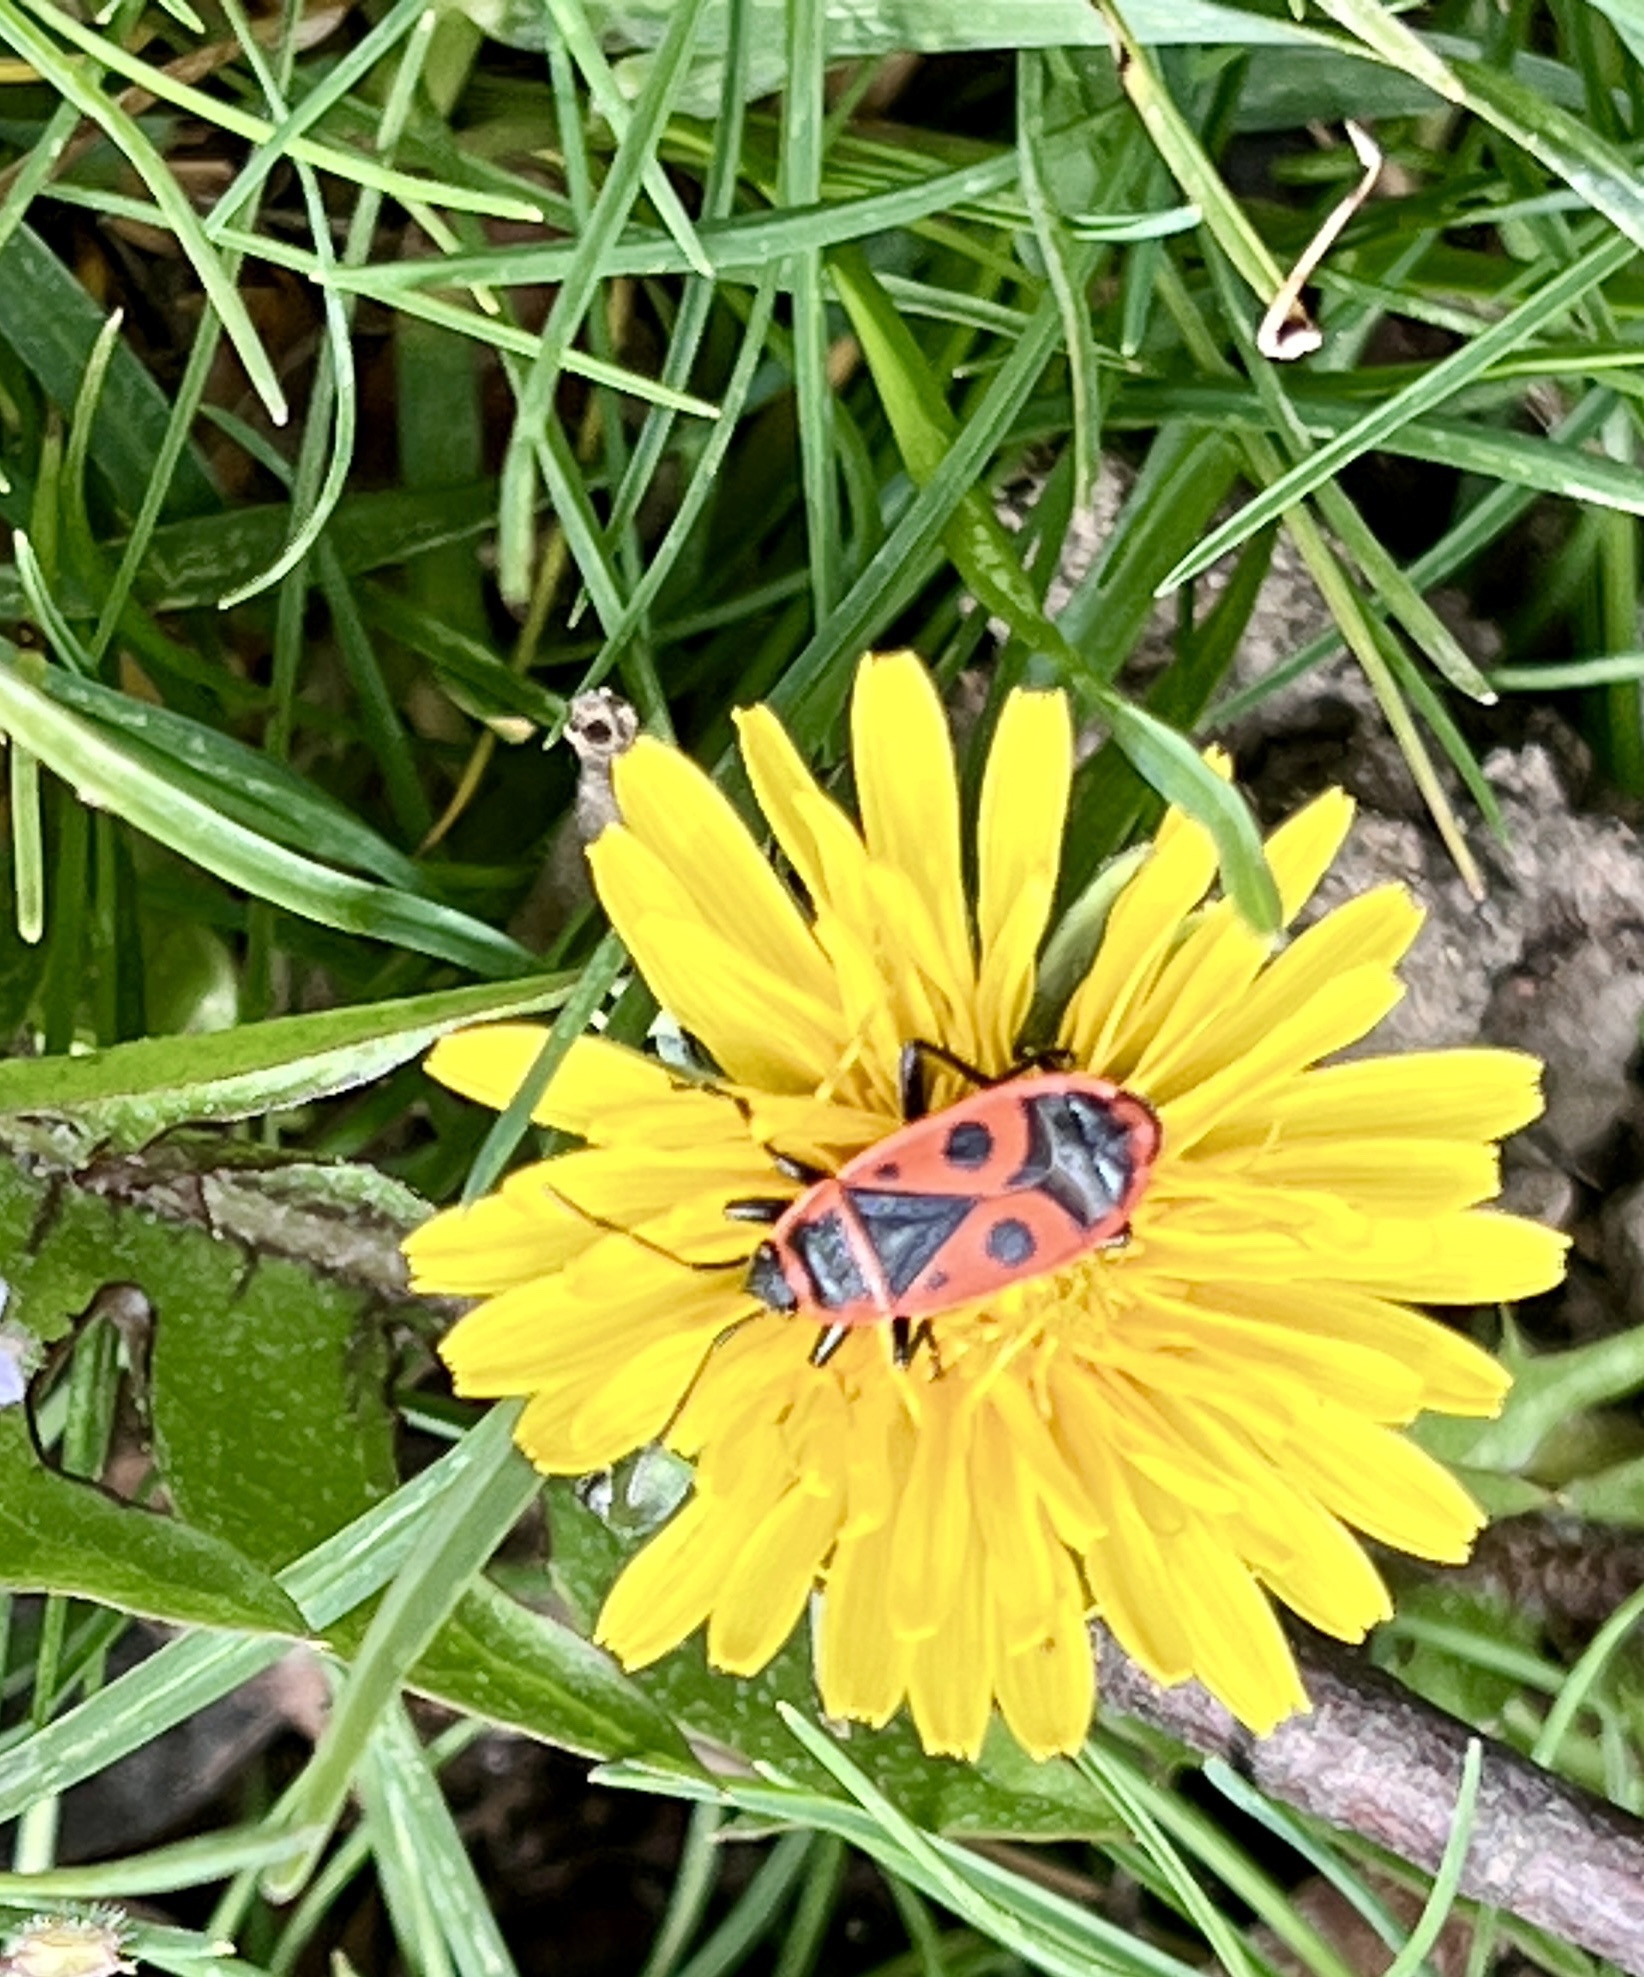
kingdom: Animalia
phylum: Arthropoda
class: Insecta
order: Hemiptera
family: Pyrrhocoridae
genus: Pyrrhocoris
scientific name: Pyrrhocoris apterus
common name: Firebug
